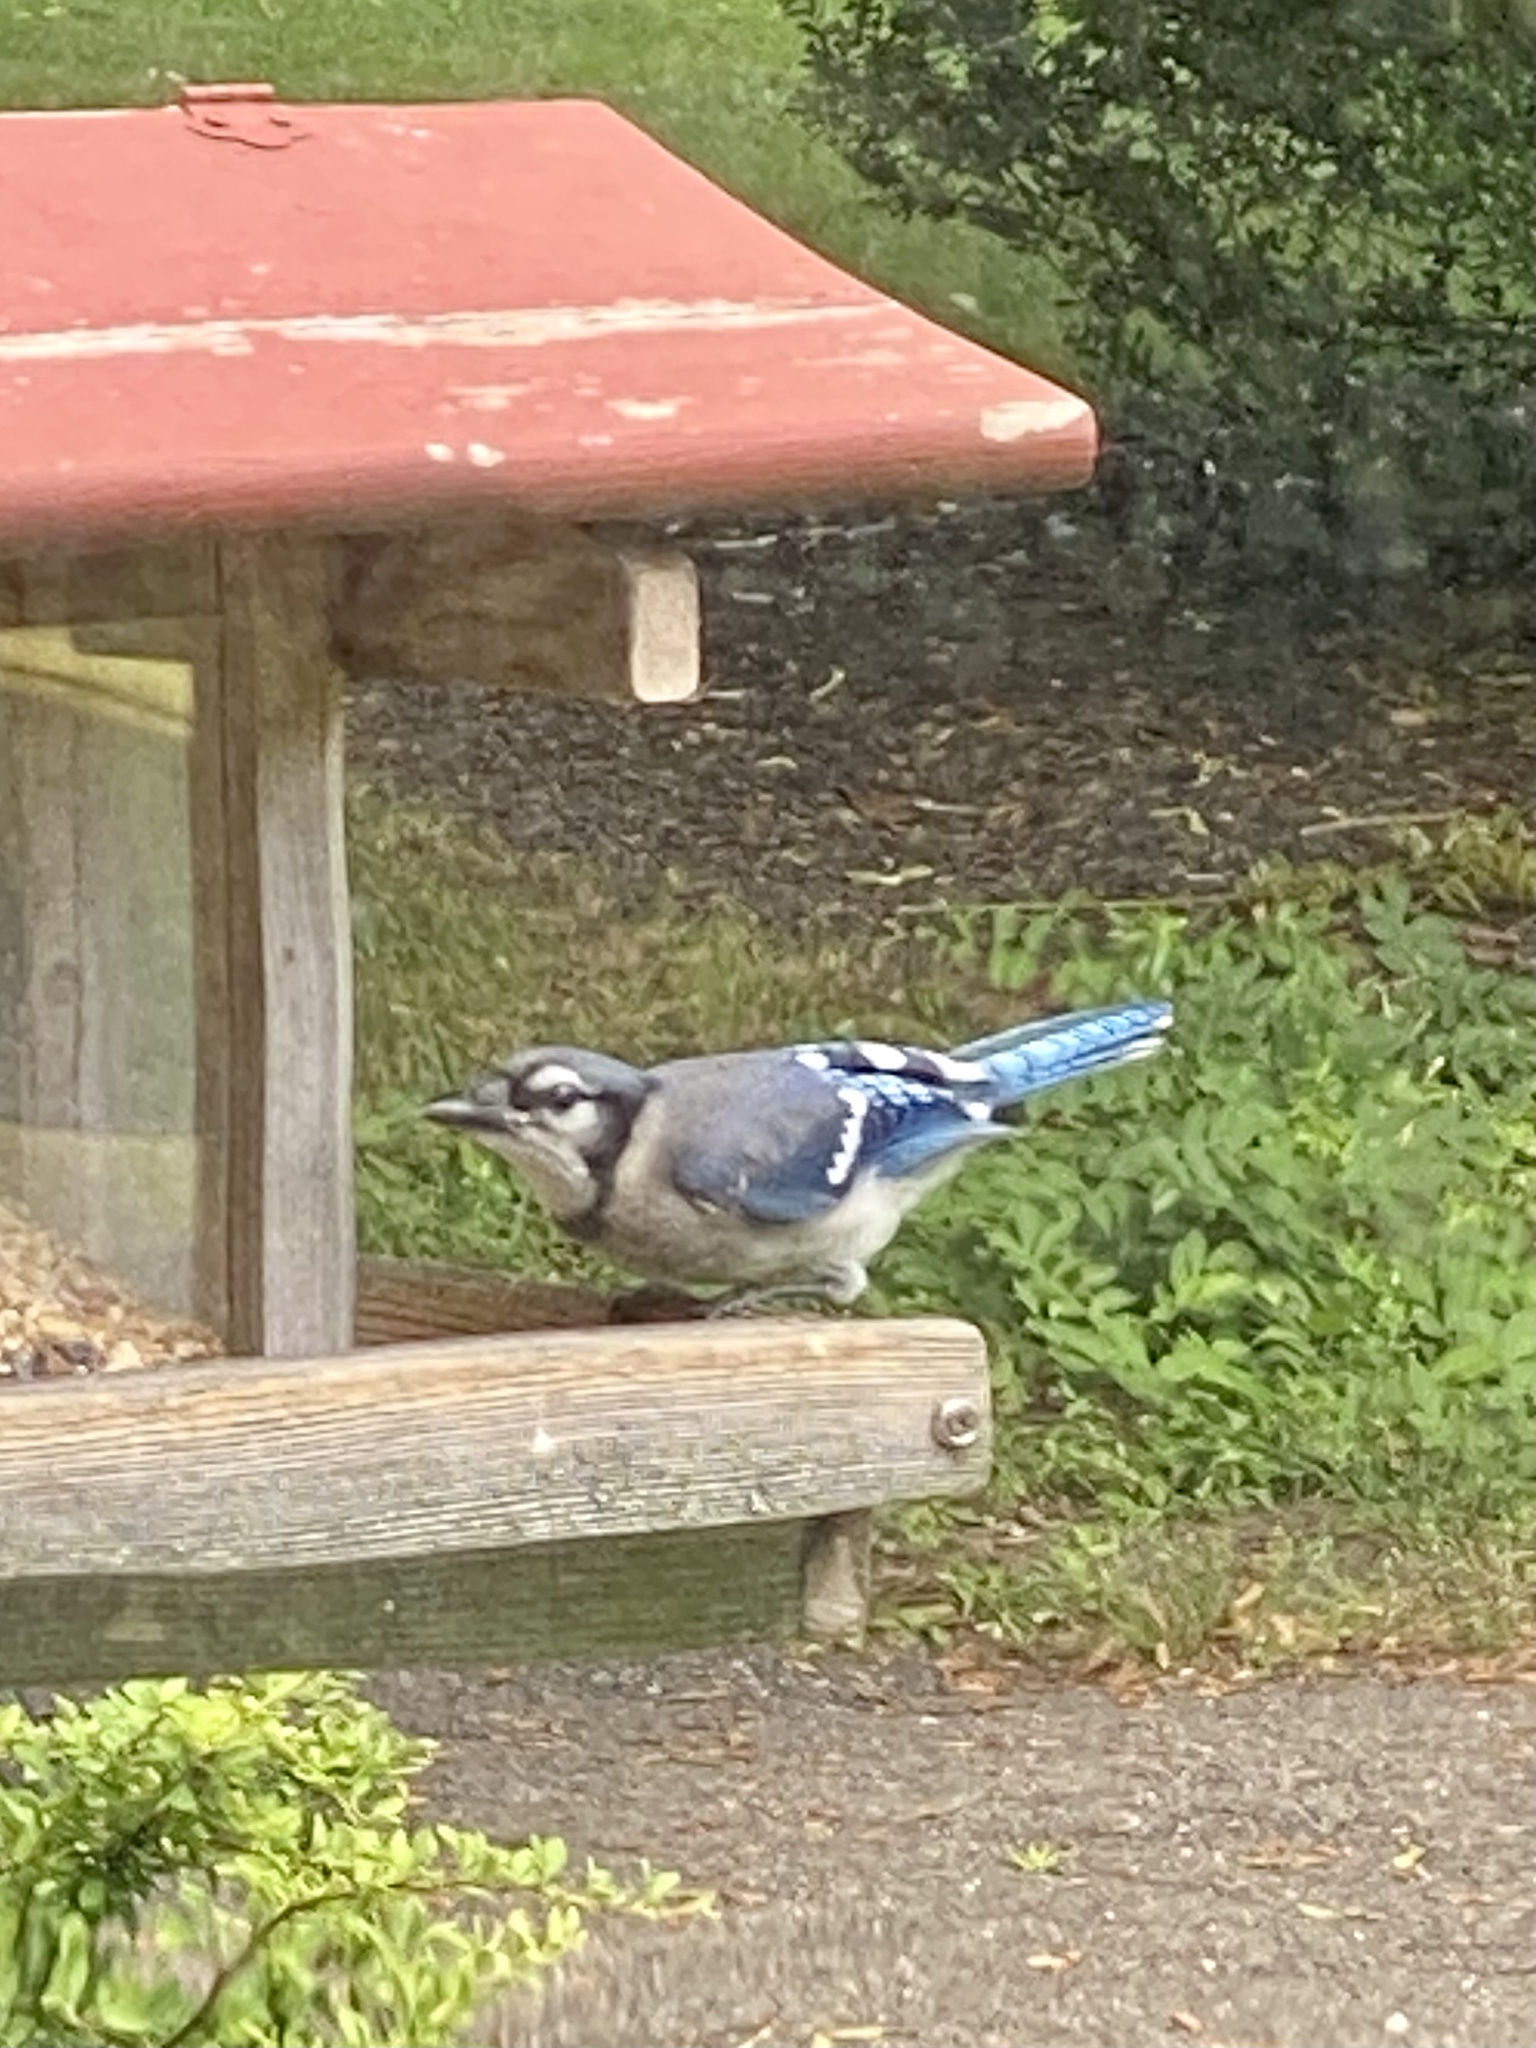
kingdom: Animalia
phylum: Chordata
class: Aves
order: Passeriformes
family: Corvidae
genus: Cyanocitta
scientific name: Cyanocitta cristata
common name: Blue jay
